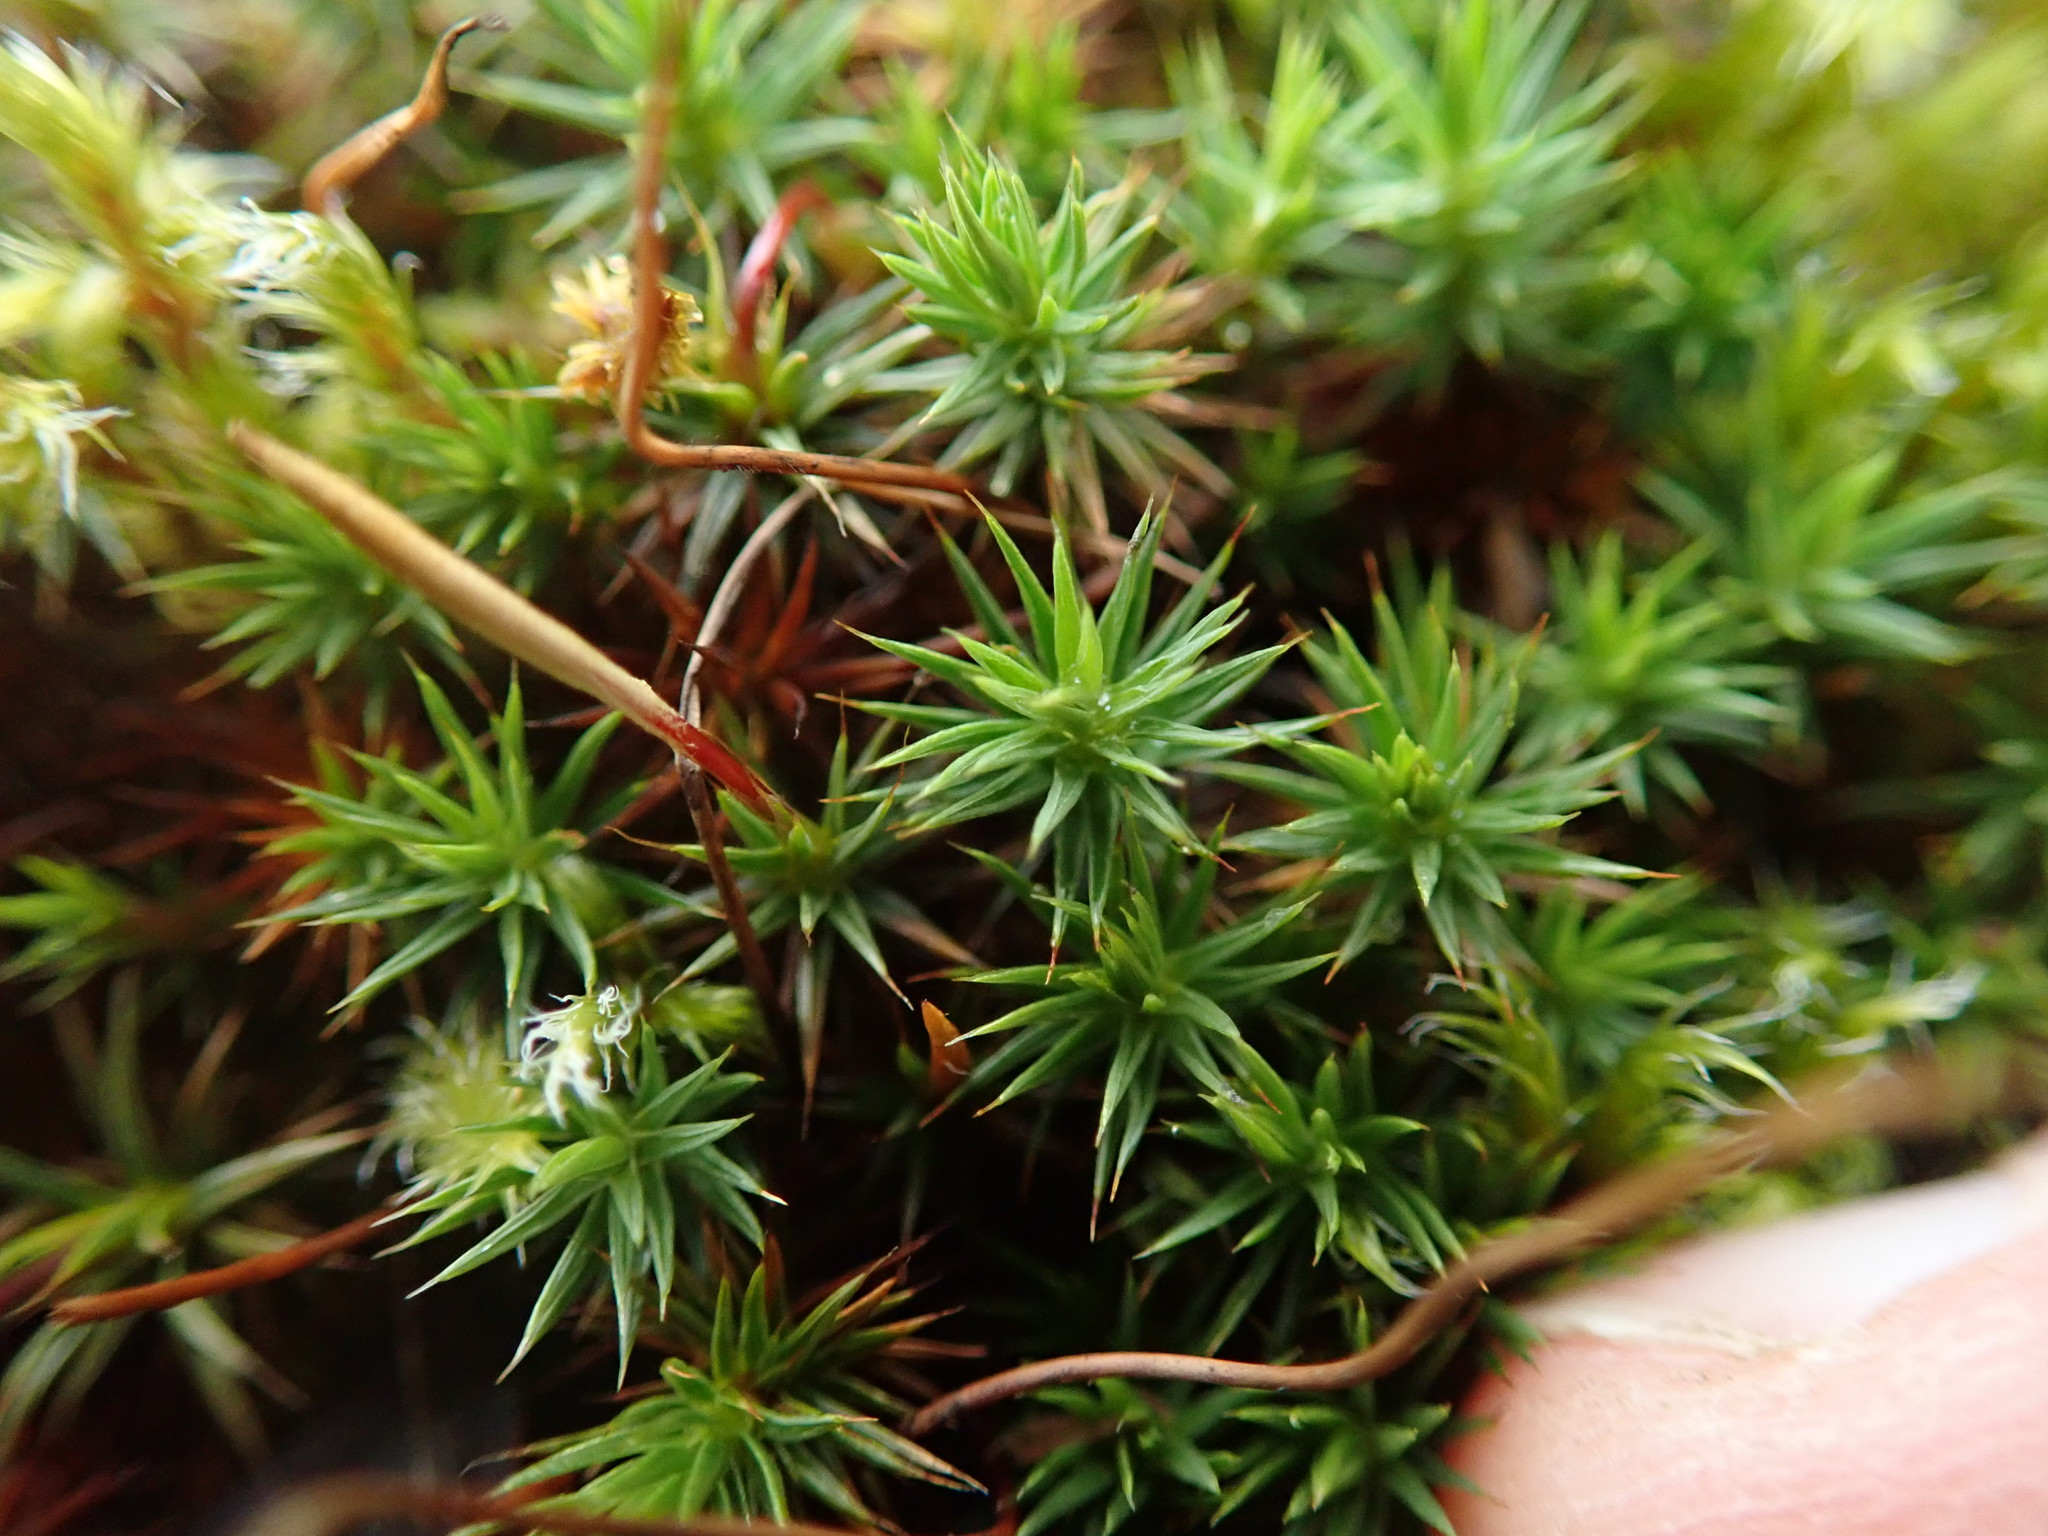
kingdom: Plantae
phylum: Bryophyta
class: Polytrichopsida
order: Polytrichales
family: Polytrichaceae
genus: Polytrichum
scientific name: Polytrichum juniperinum
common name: Juniper haircap moss
